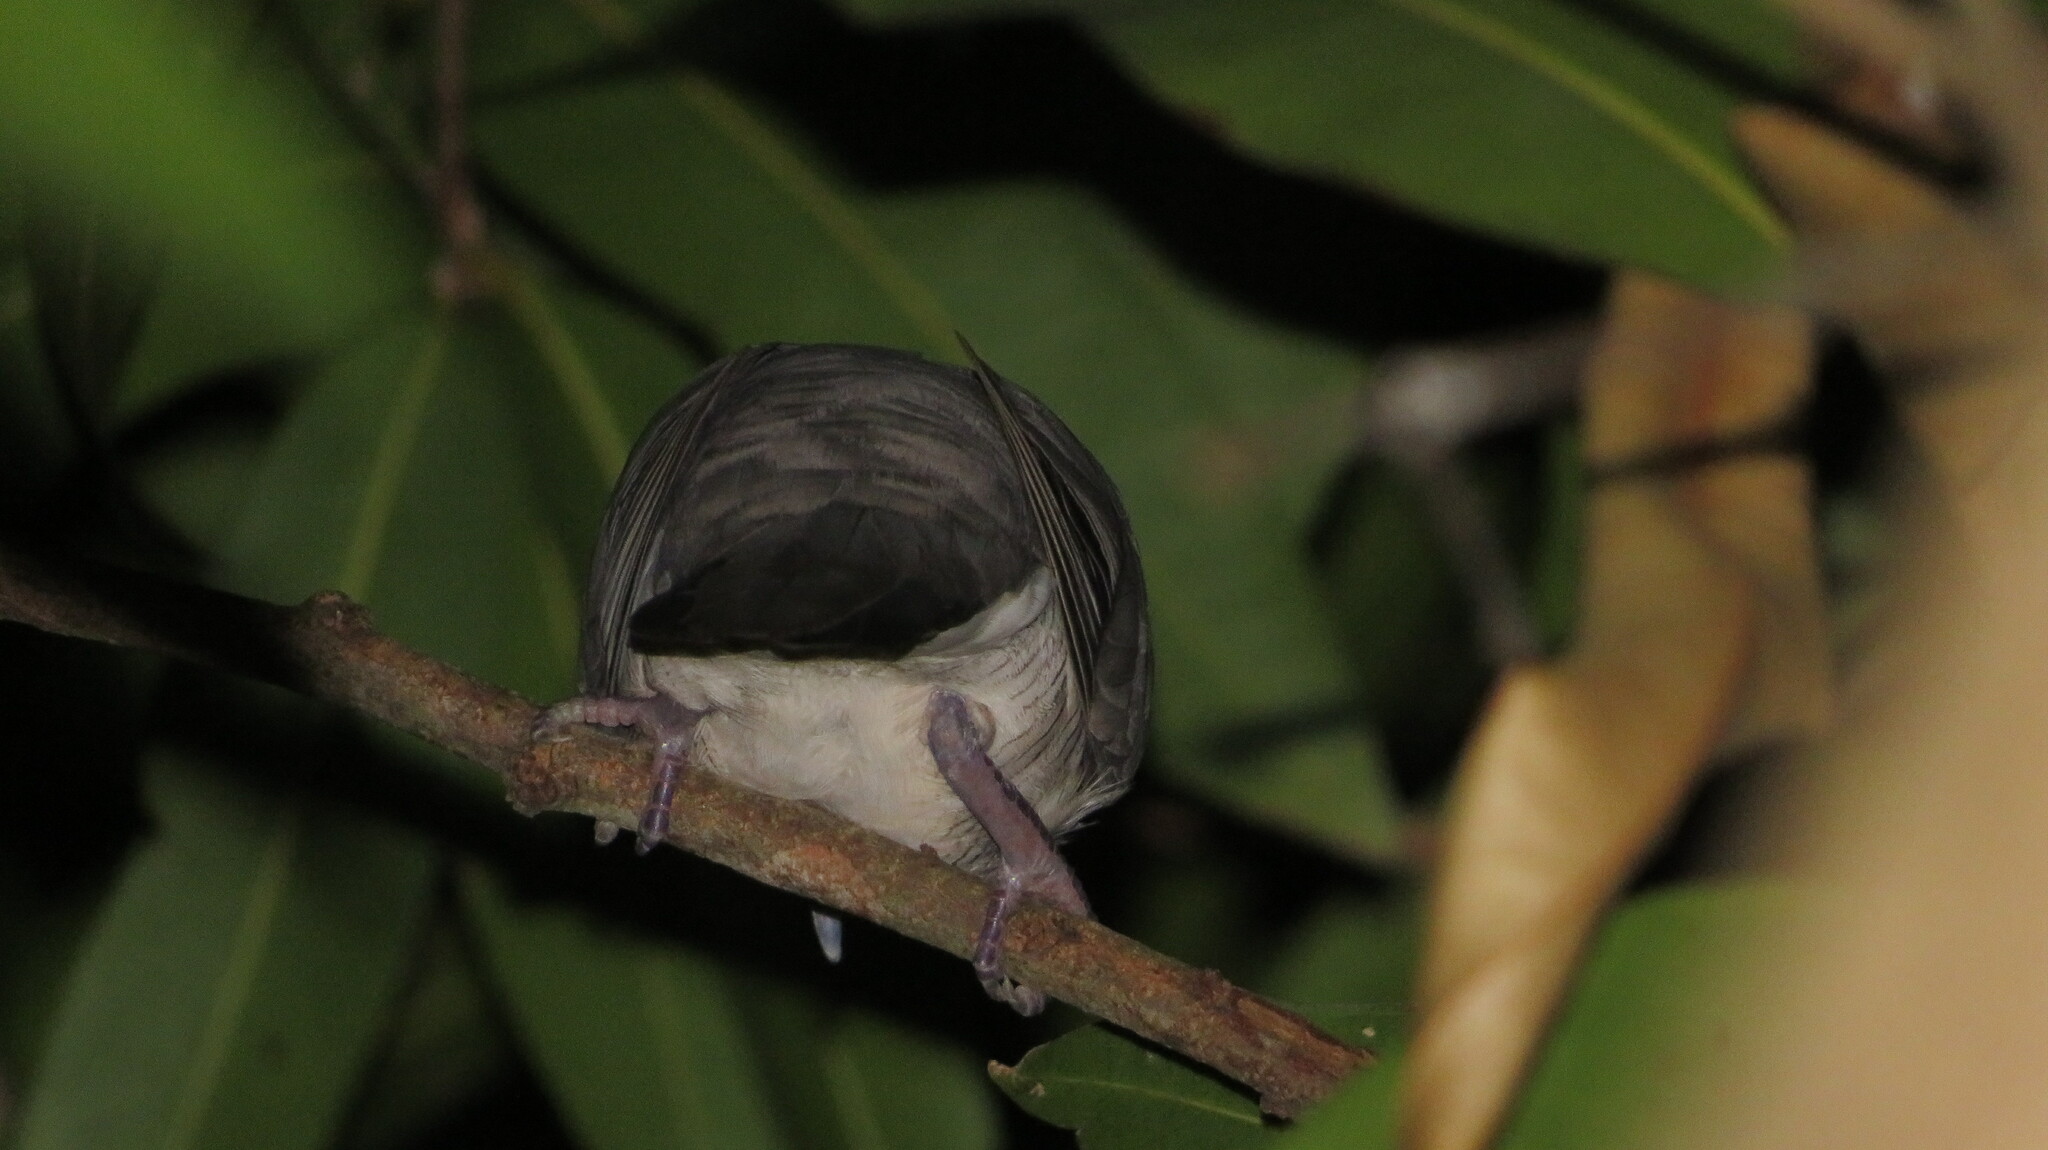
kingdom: Animalia
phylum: Chordata
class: Aves
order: Passeriformes
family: Rhipiduridae
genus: Rhipidura
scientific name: Rhipidura javanica
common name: Pied fantail
